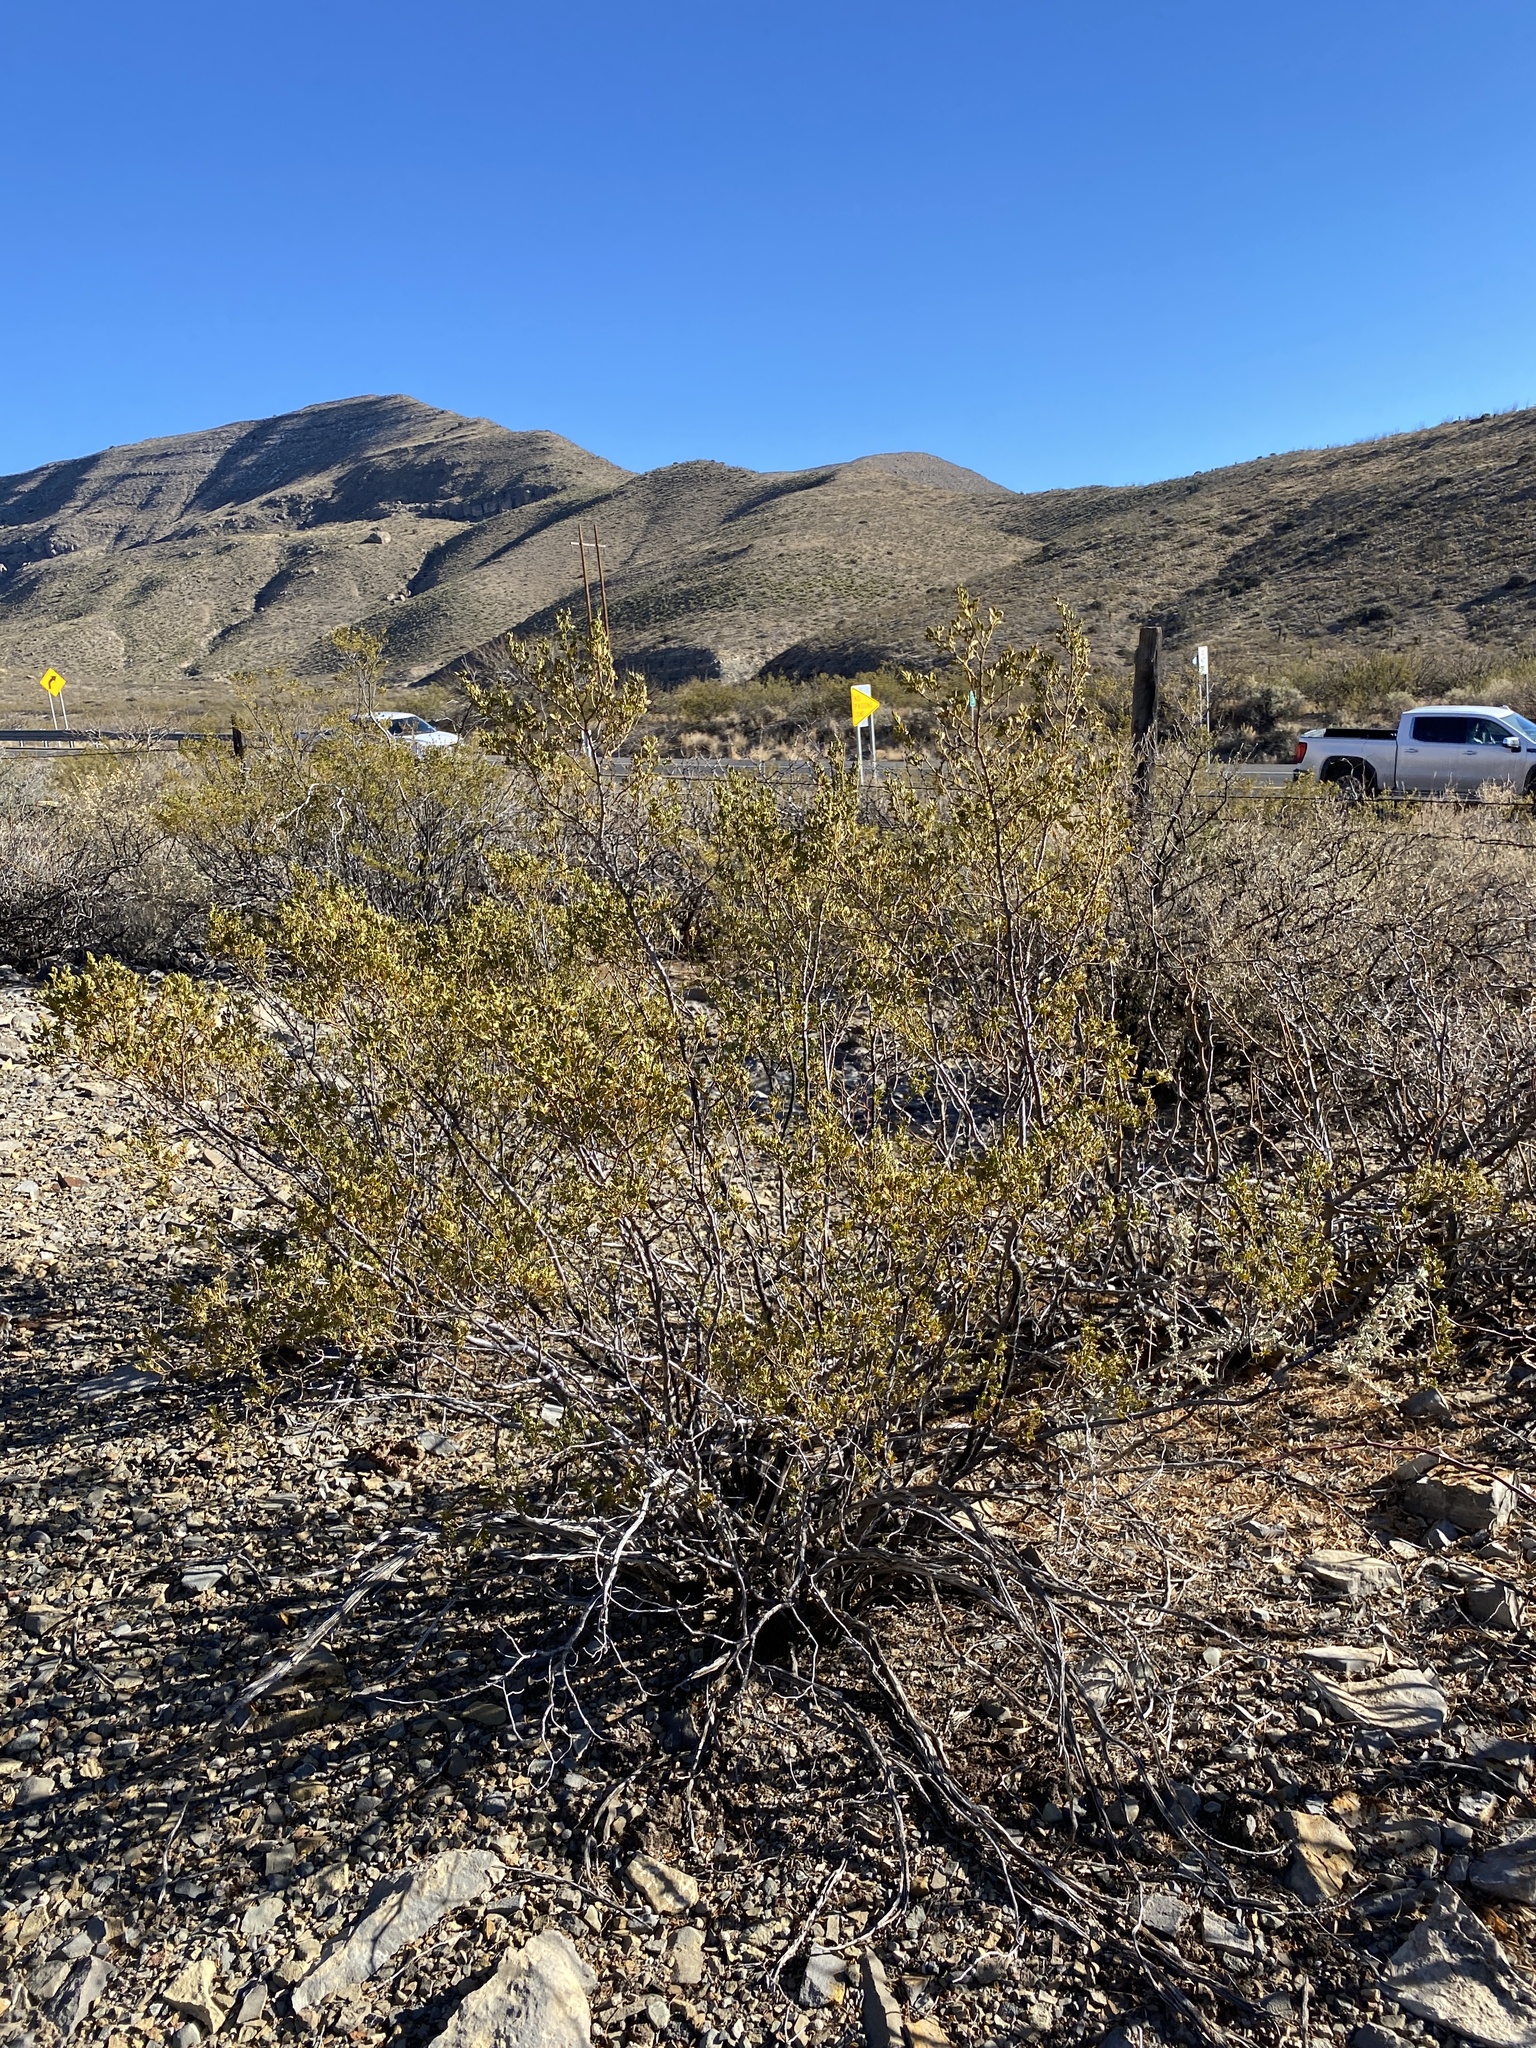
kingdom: Plantae
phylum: Tracheophyta
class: Magnoliopsida
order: Zygophyllales
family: Zygophyllaceae
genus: Larrea
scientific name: Larrea tridentata
